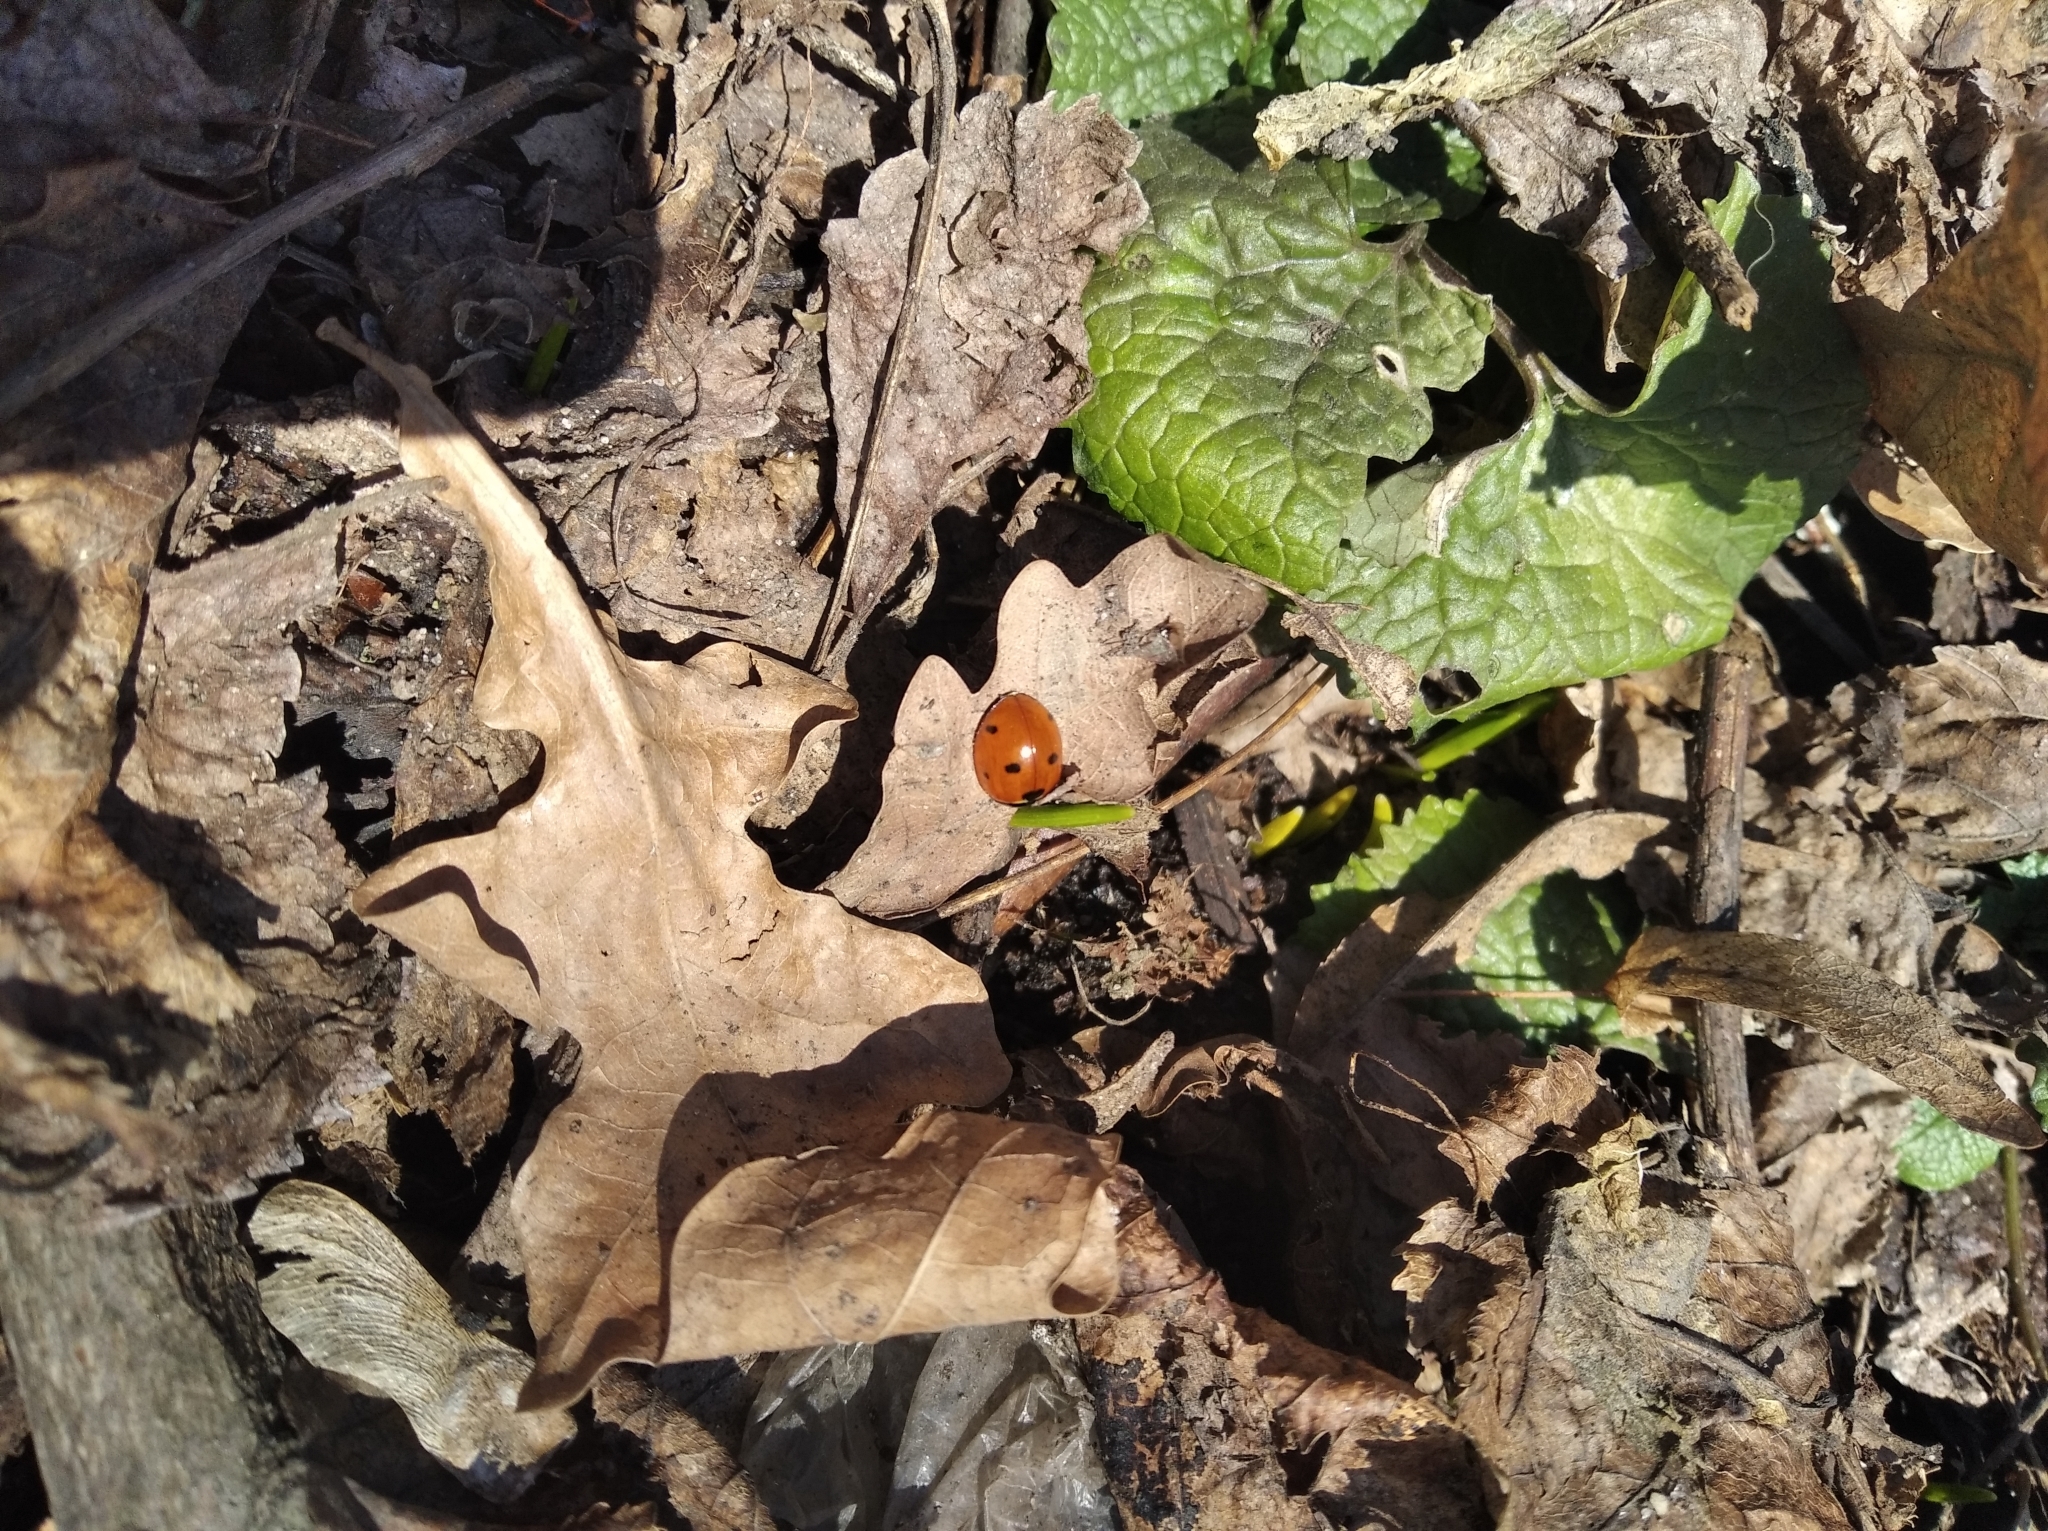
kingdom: Animalia
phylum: Arthropoda
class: Insecta
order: Coleoptera
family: Coccinellidae
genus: Coccinella
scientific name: Coccinella septempunctata
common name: Sevenspotted lady beetle
